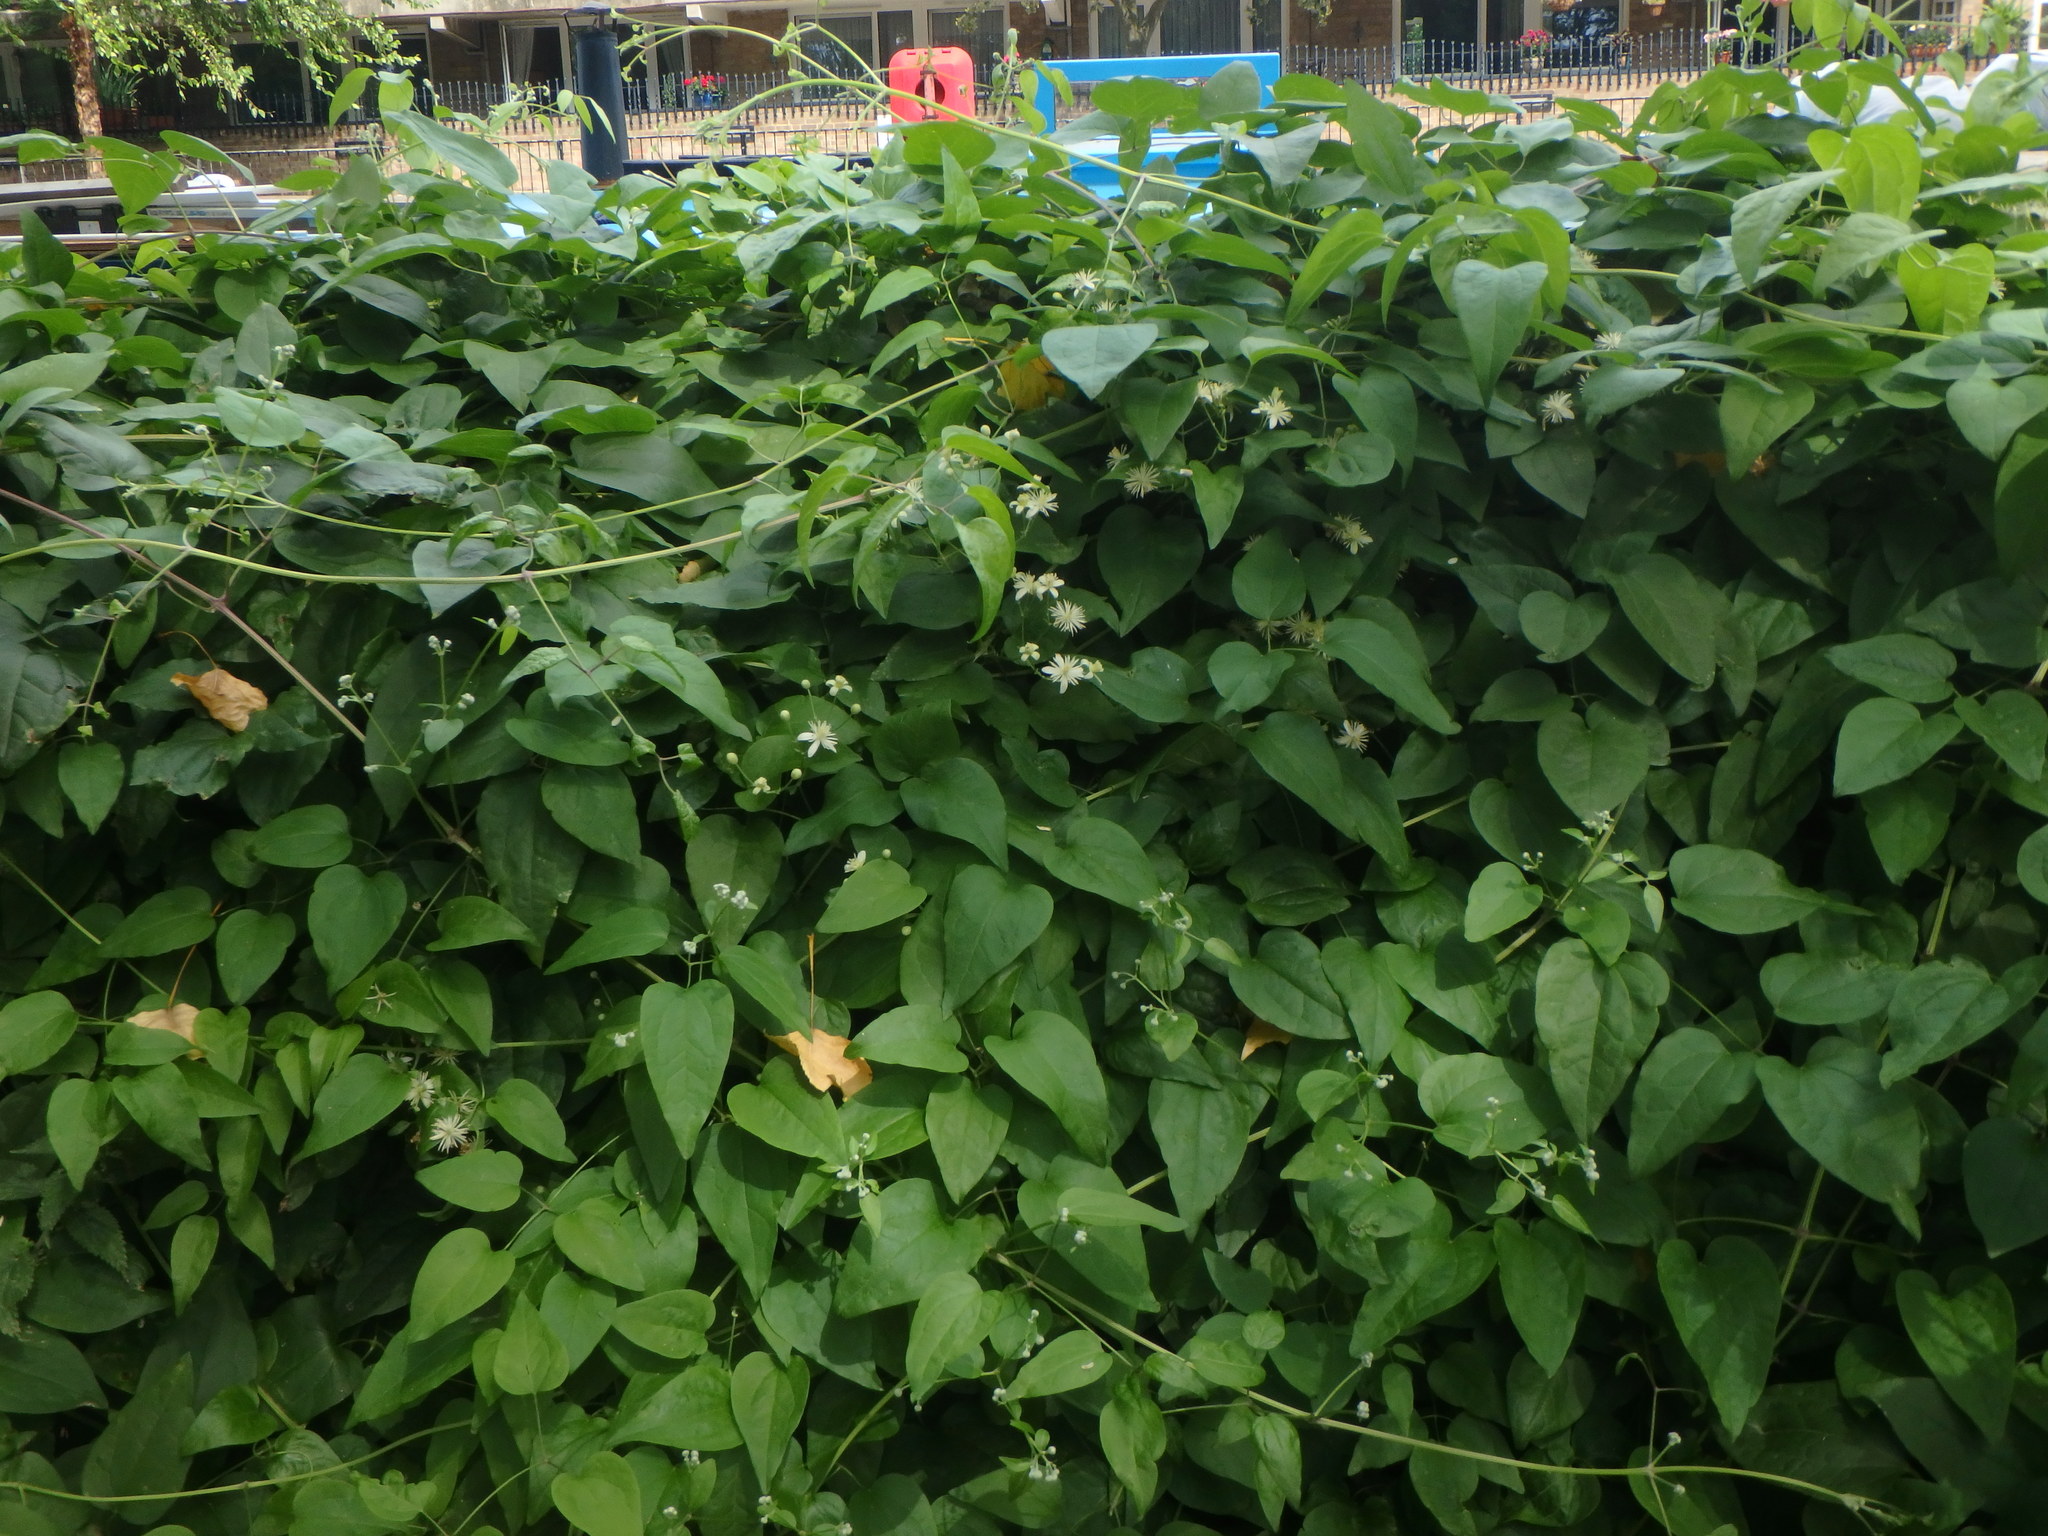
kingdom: Plantae
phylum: Tracheophyta
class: Magnoliopsida
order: Ranunculales
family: Ranunculaceae
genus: Clematis
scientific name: Clematis vitalba
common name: Evergreen clematis
